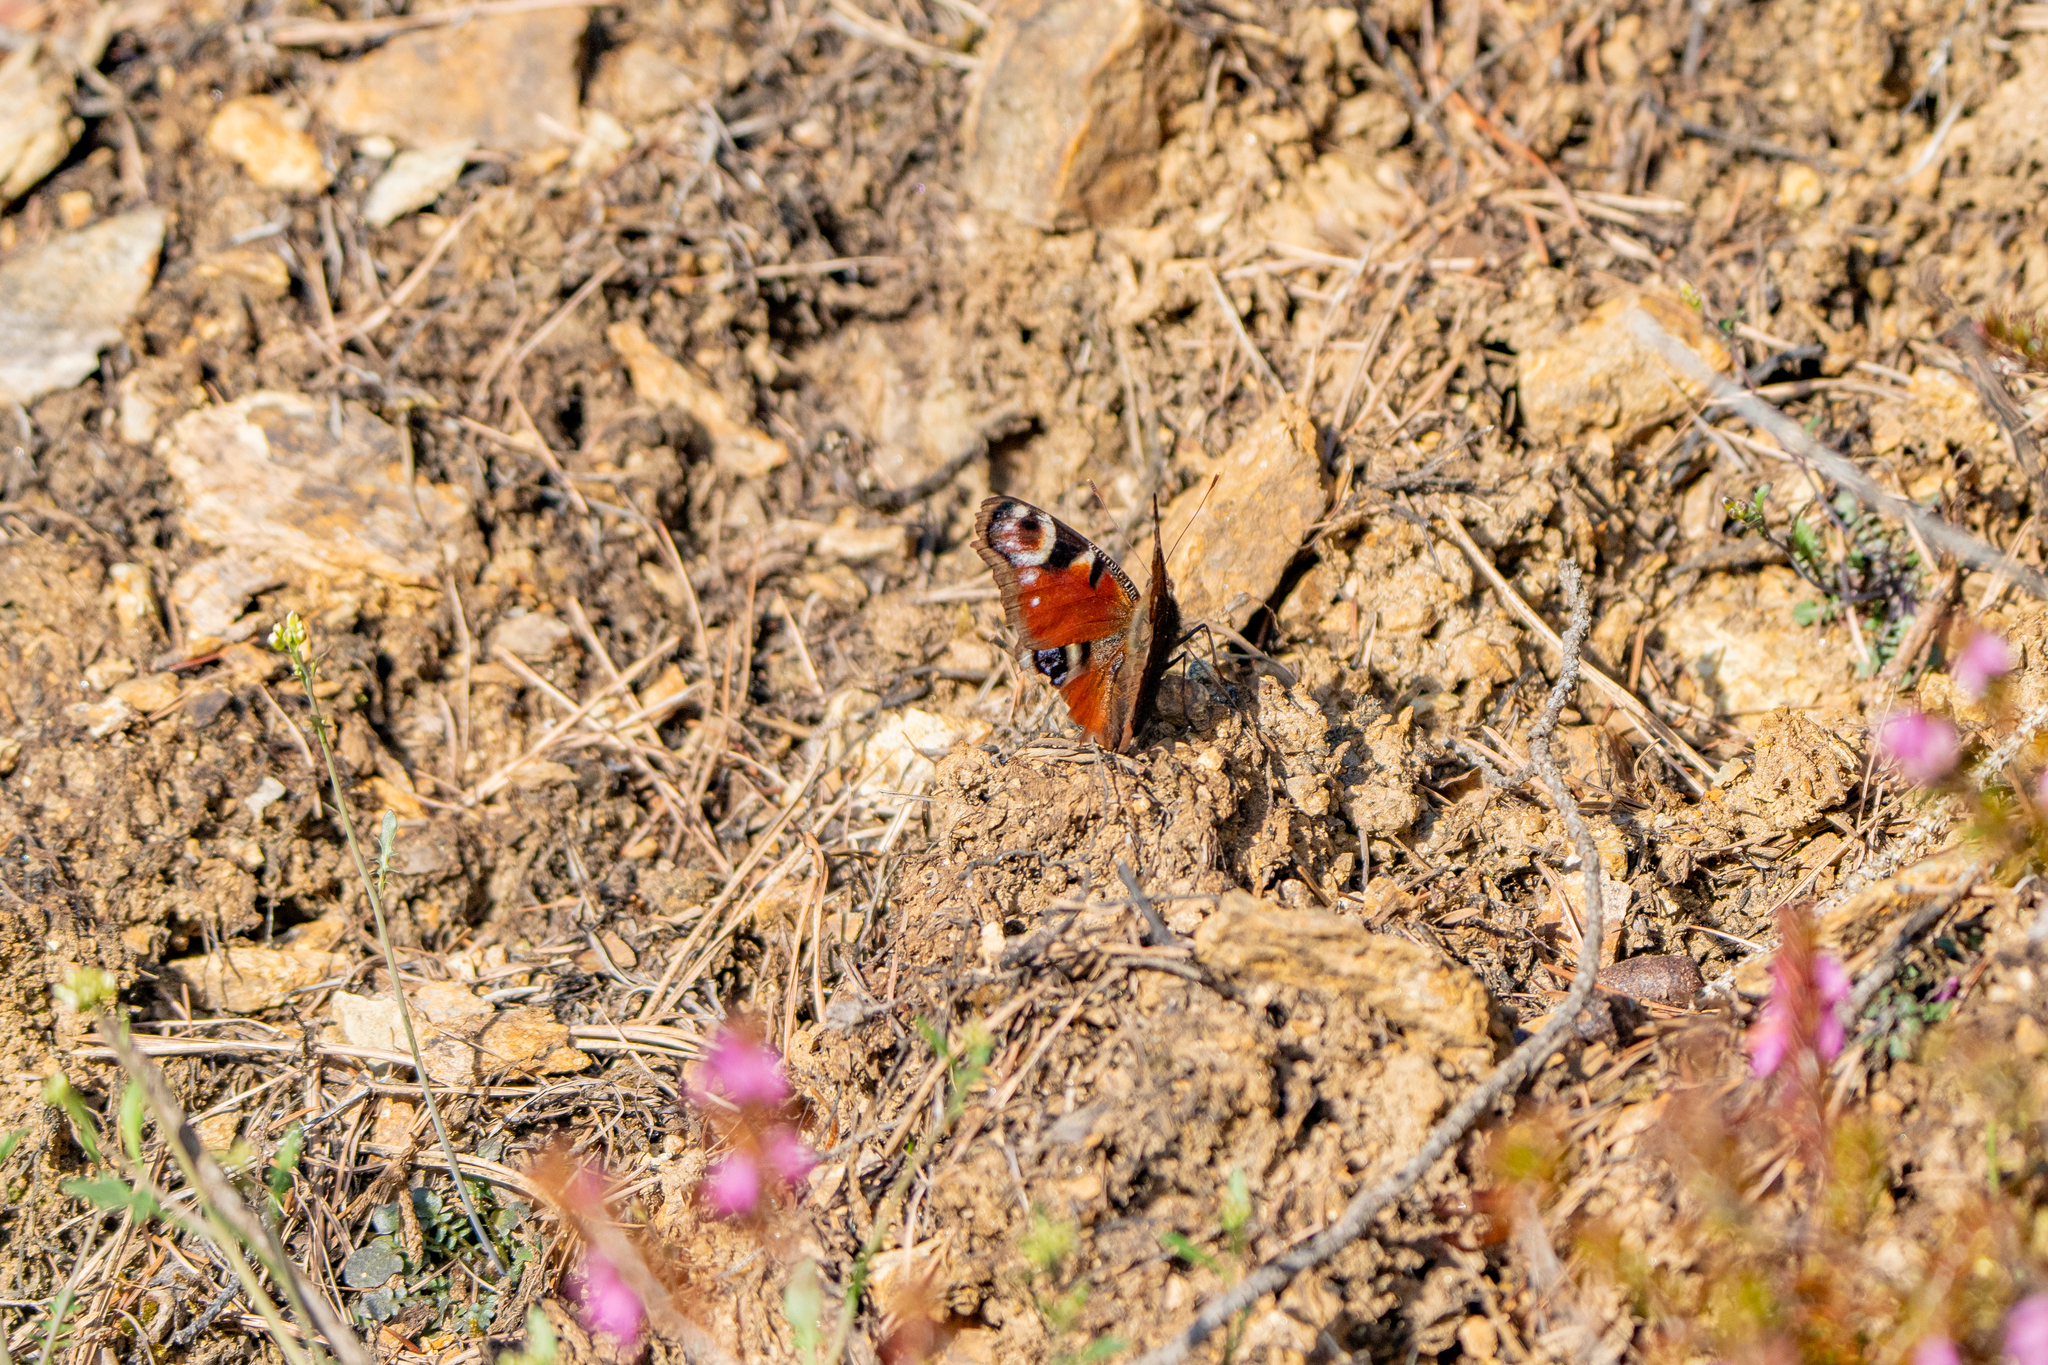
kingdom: Animalia
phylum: Arthropoda
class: Insecta
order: Lepidoptera
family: Nymphalidae
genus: Aglais
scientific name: Aglais io
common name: Peacock
